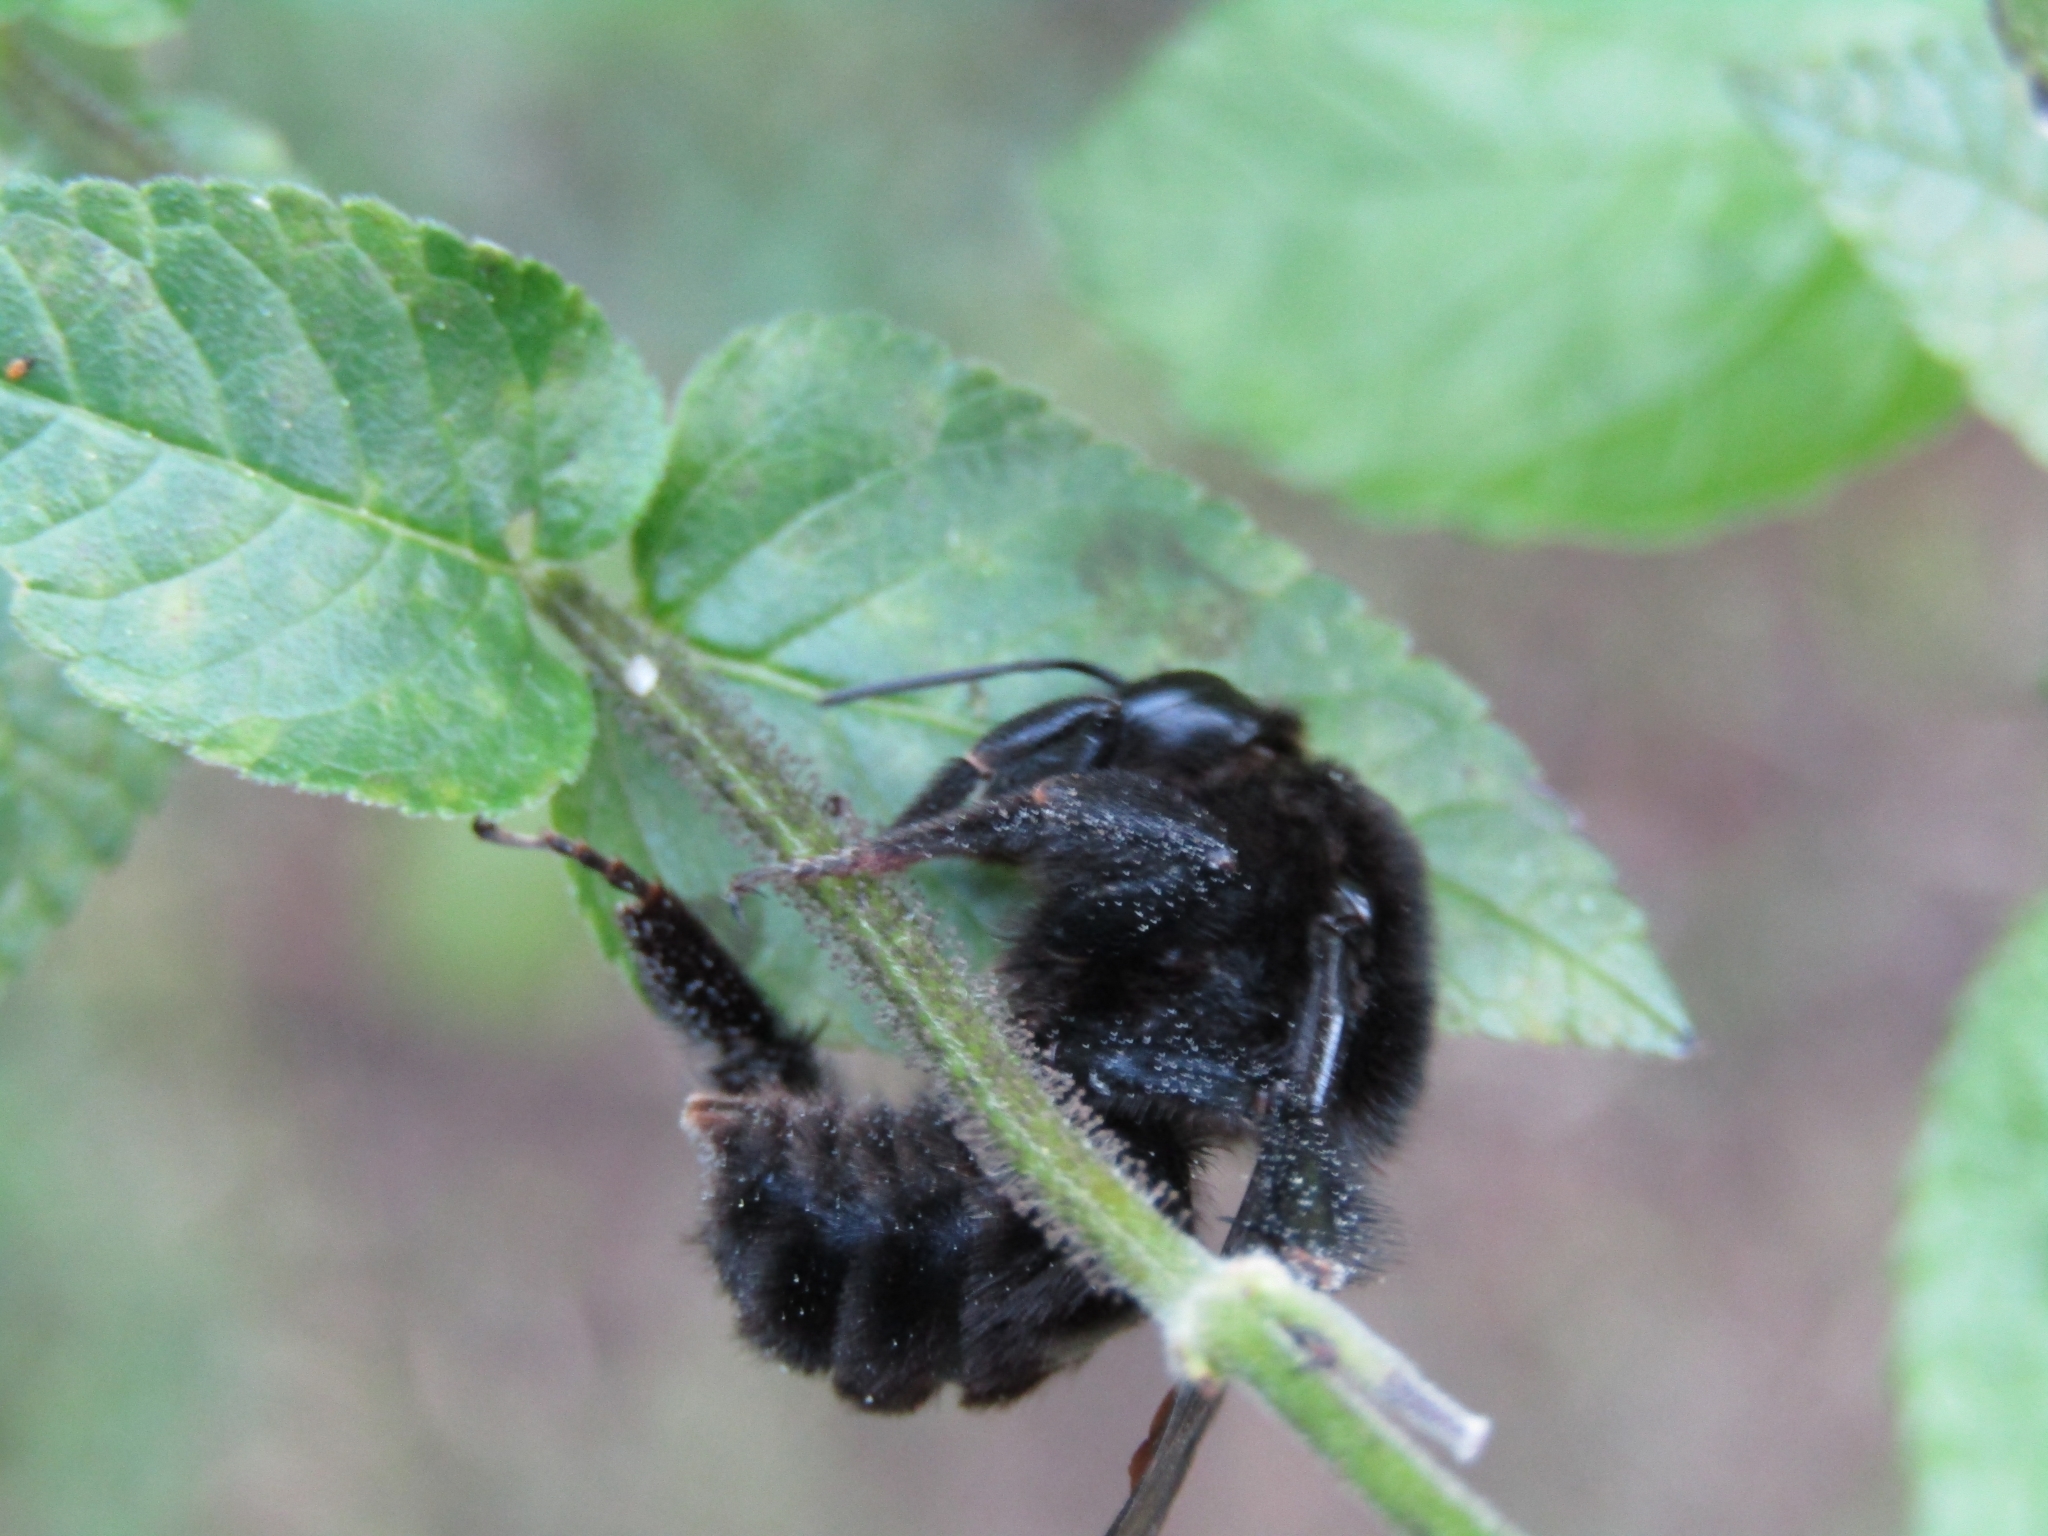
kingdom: Animalia
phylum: Arthropoda
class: Insecta
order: Hymenoptera
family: Apidae
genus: Bombus
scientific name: Bombus pauloensis
